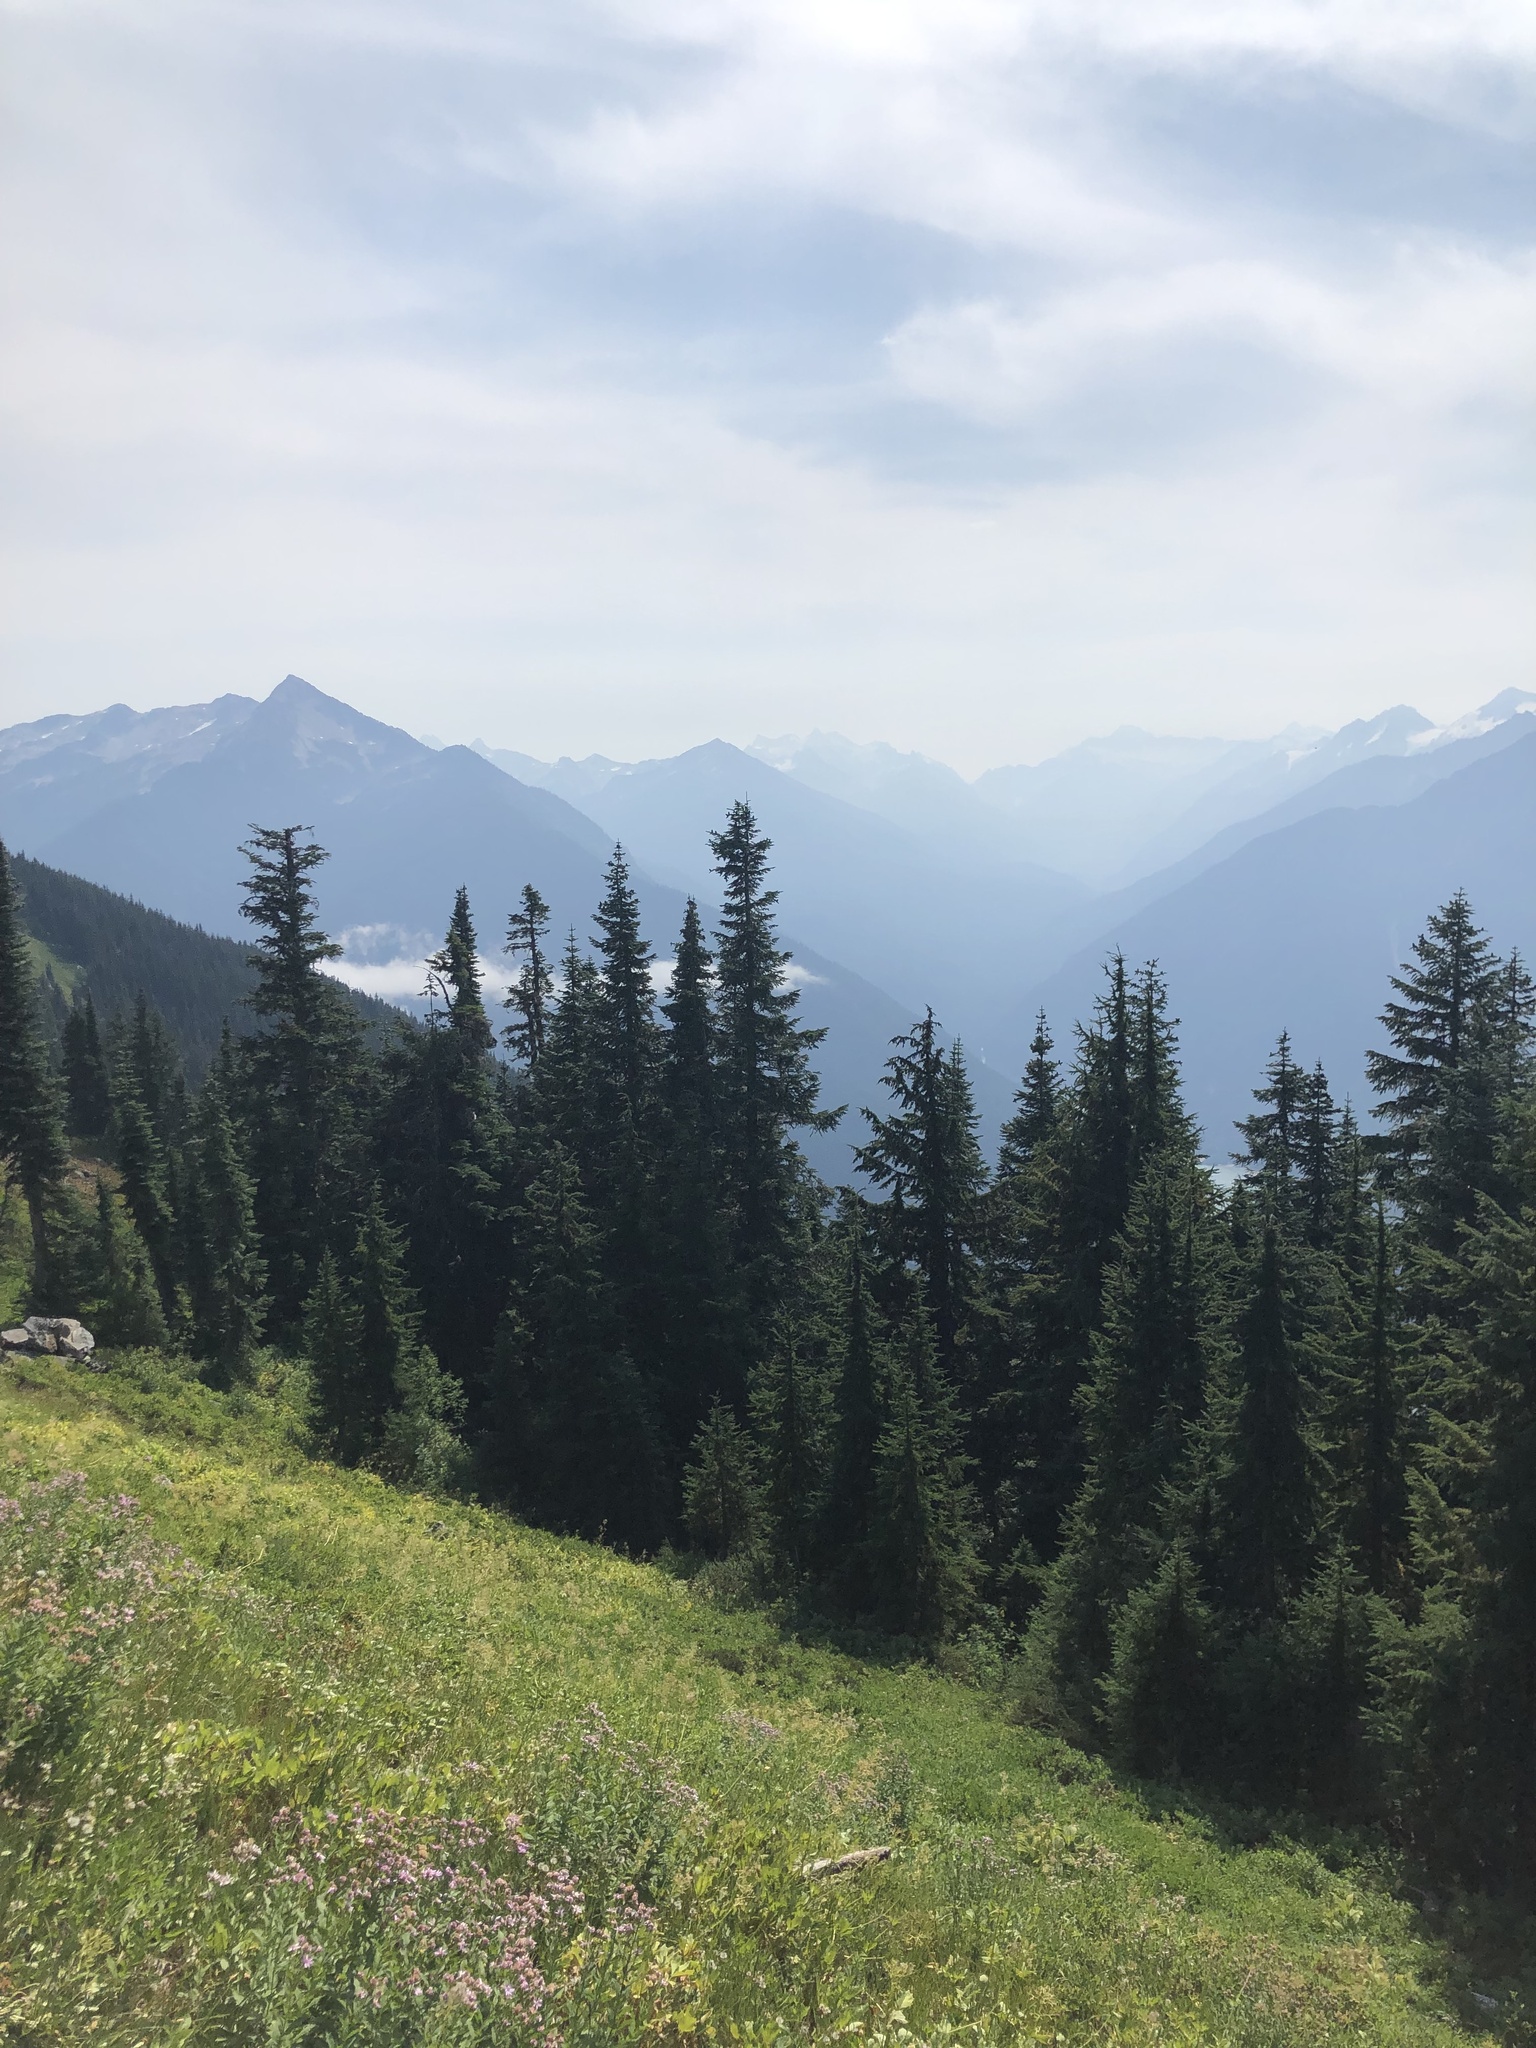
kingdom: Plantae
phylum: Tracheophyta
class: Pinopsida
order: Pinales
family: Pinaceae
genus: Abies
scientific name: Abies amabilis
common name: Pacific silver fir
